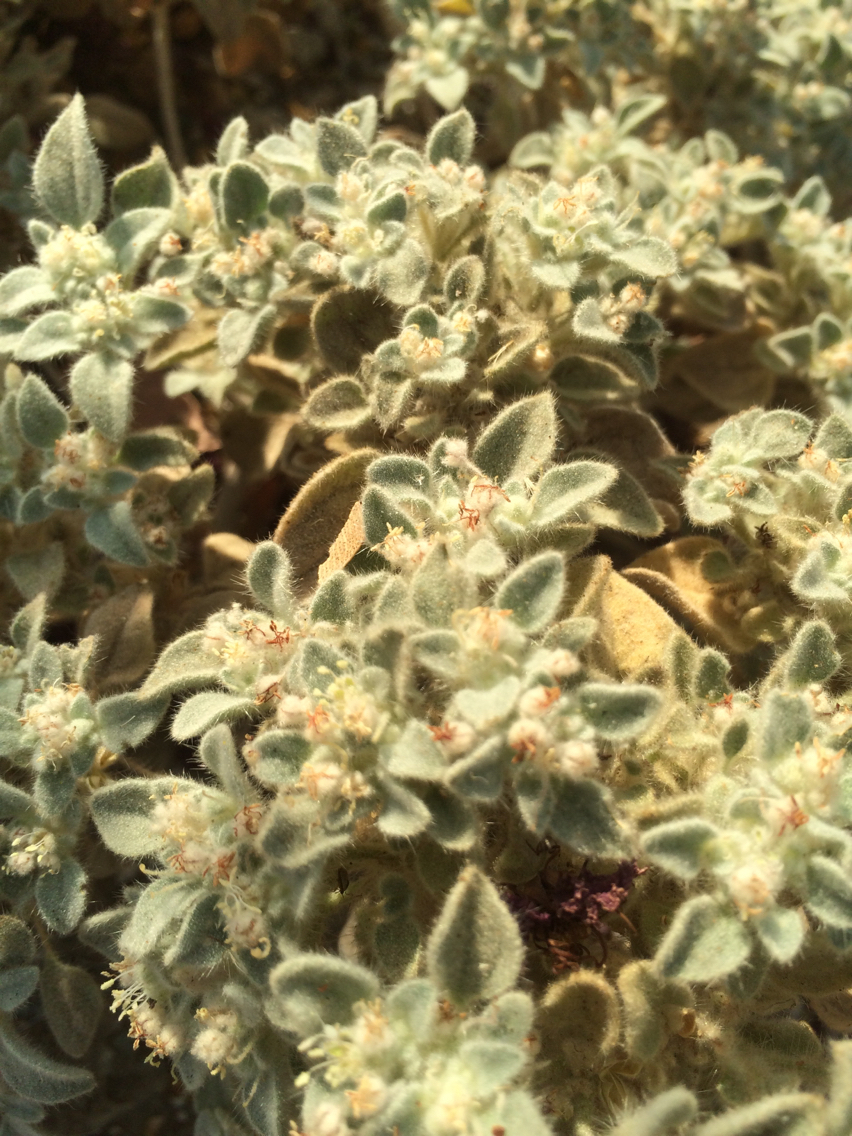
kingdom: Plantae
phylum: Tracheophyta
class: Magnoliopsida
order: Malpighiales
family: Euphorbiaceae
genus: Croton
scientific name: Croton setiger
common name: Dove weed
